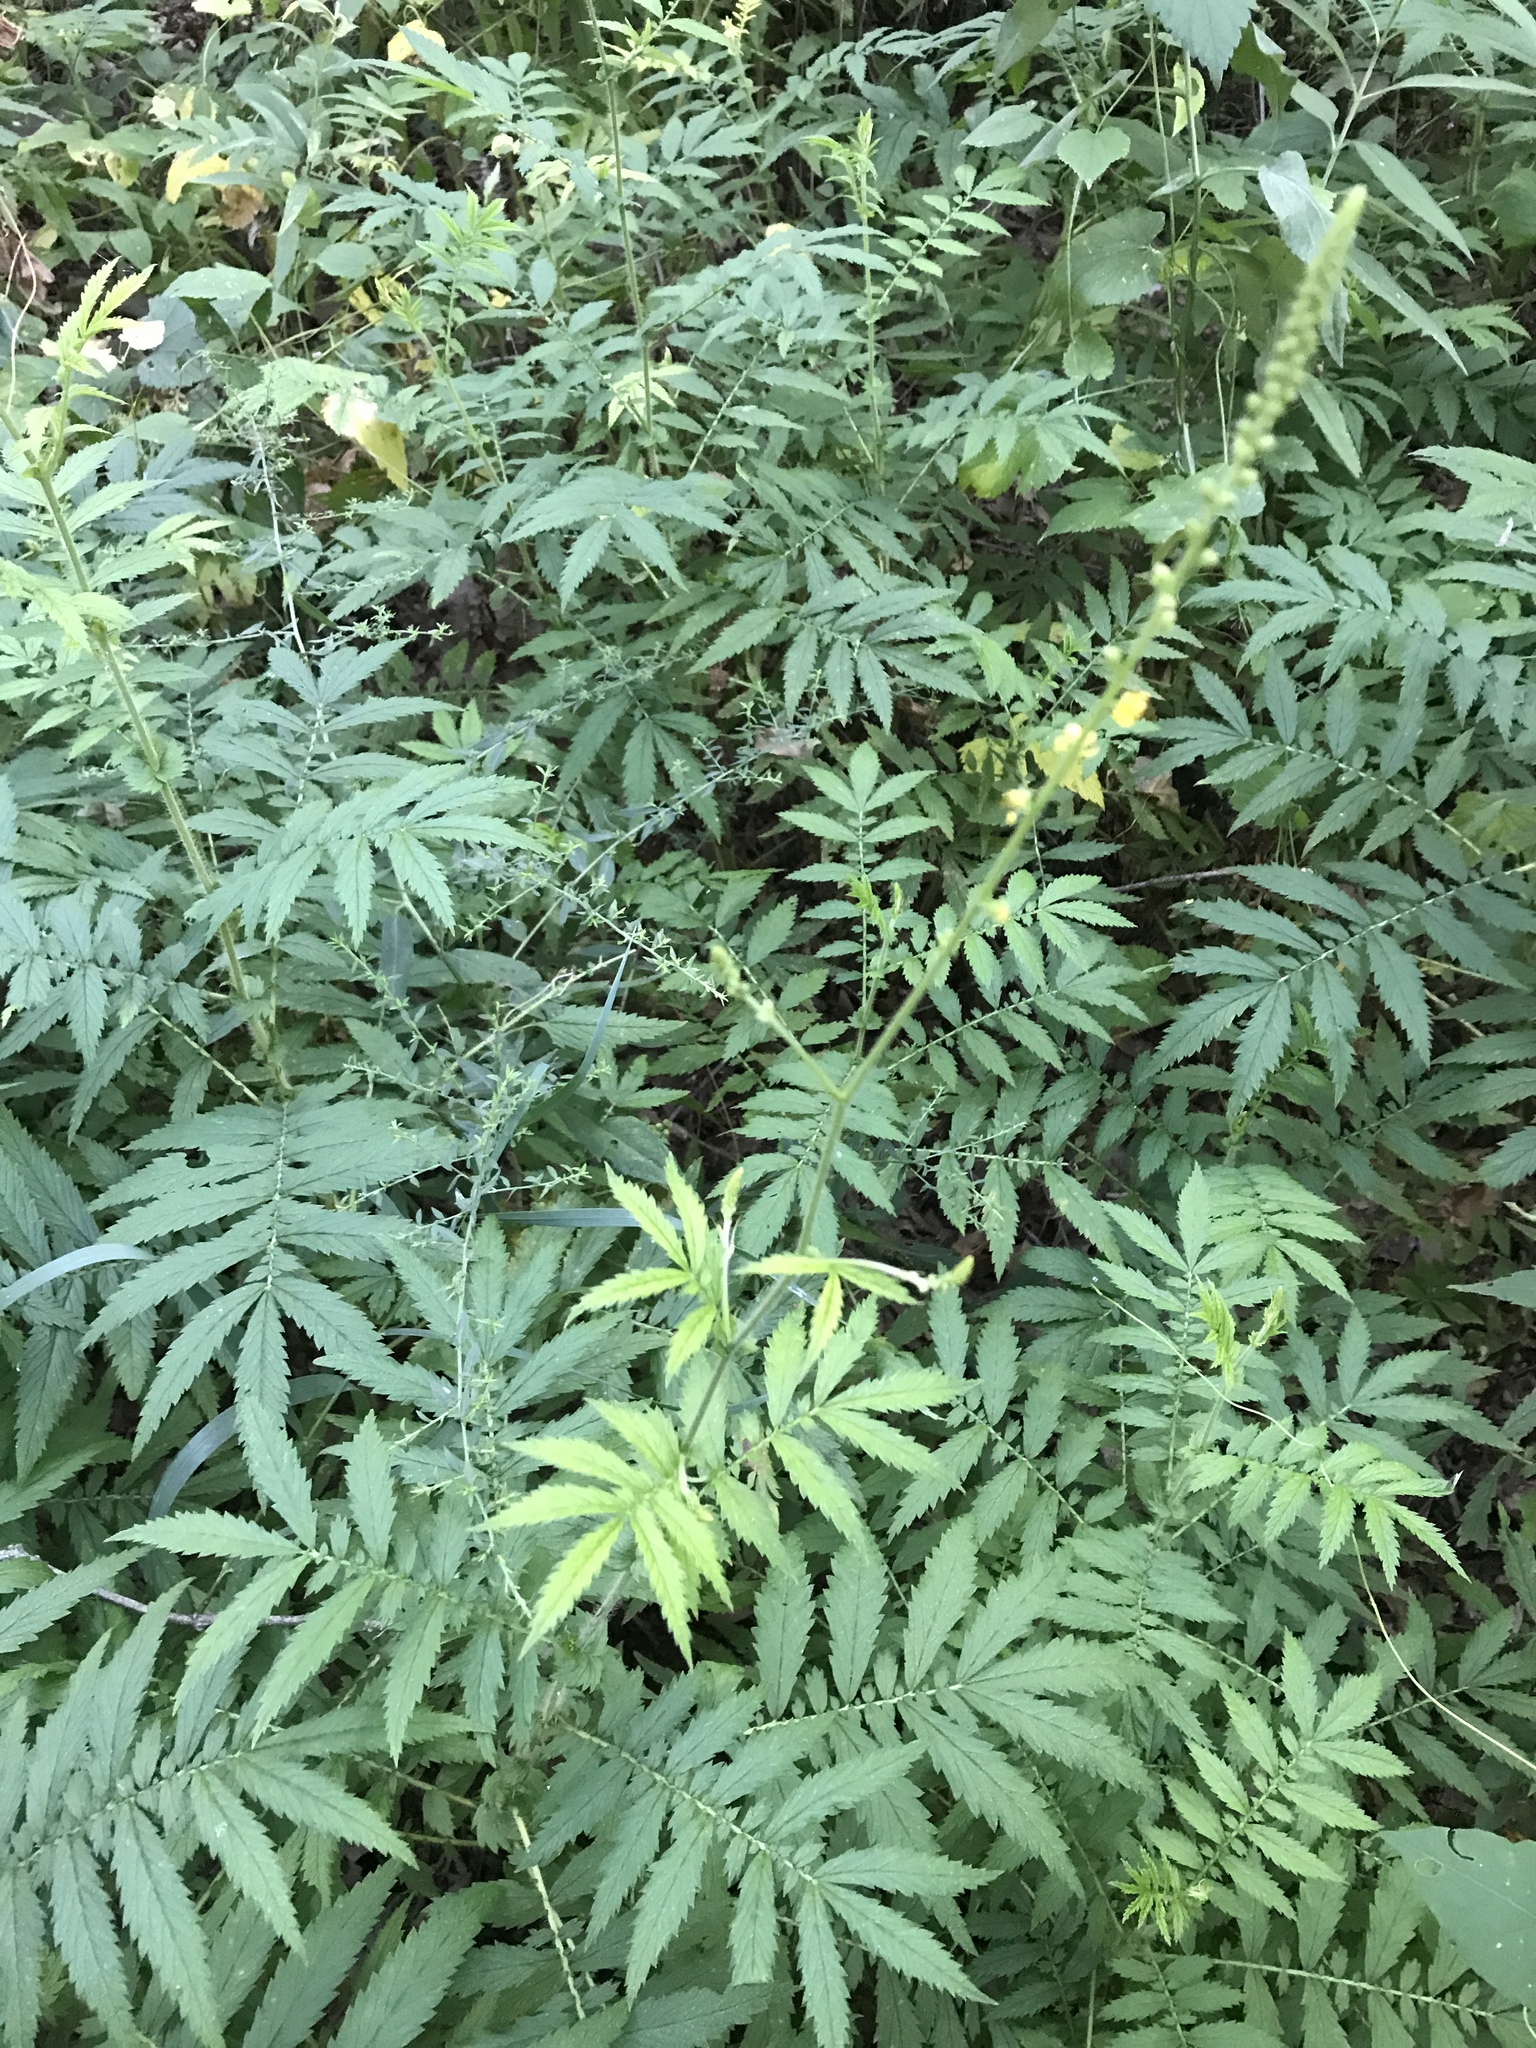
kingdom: Plantae
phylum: Tracheophyta
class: Magnoliopsida
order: Rosales
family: Rosaceae
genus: Agrimonia
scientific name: Agrimonia parviflora
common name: Harvest-lice
